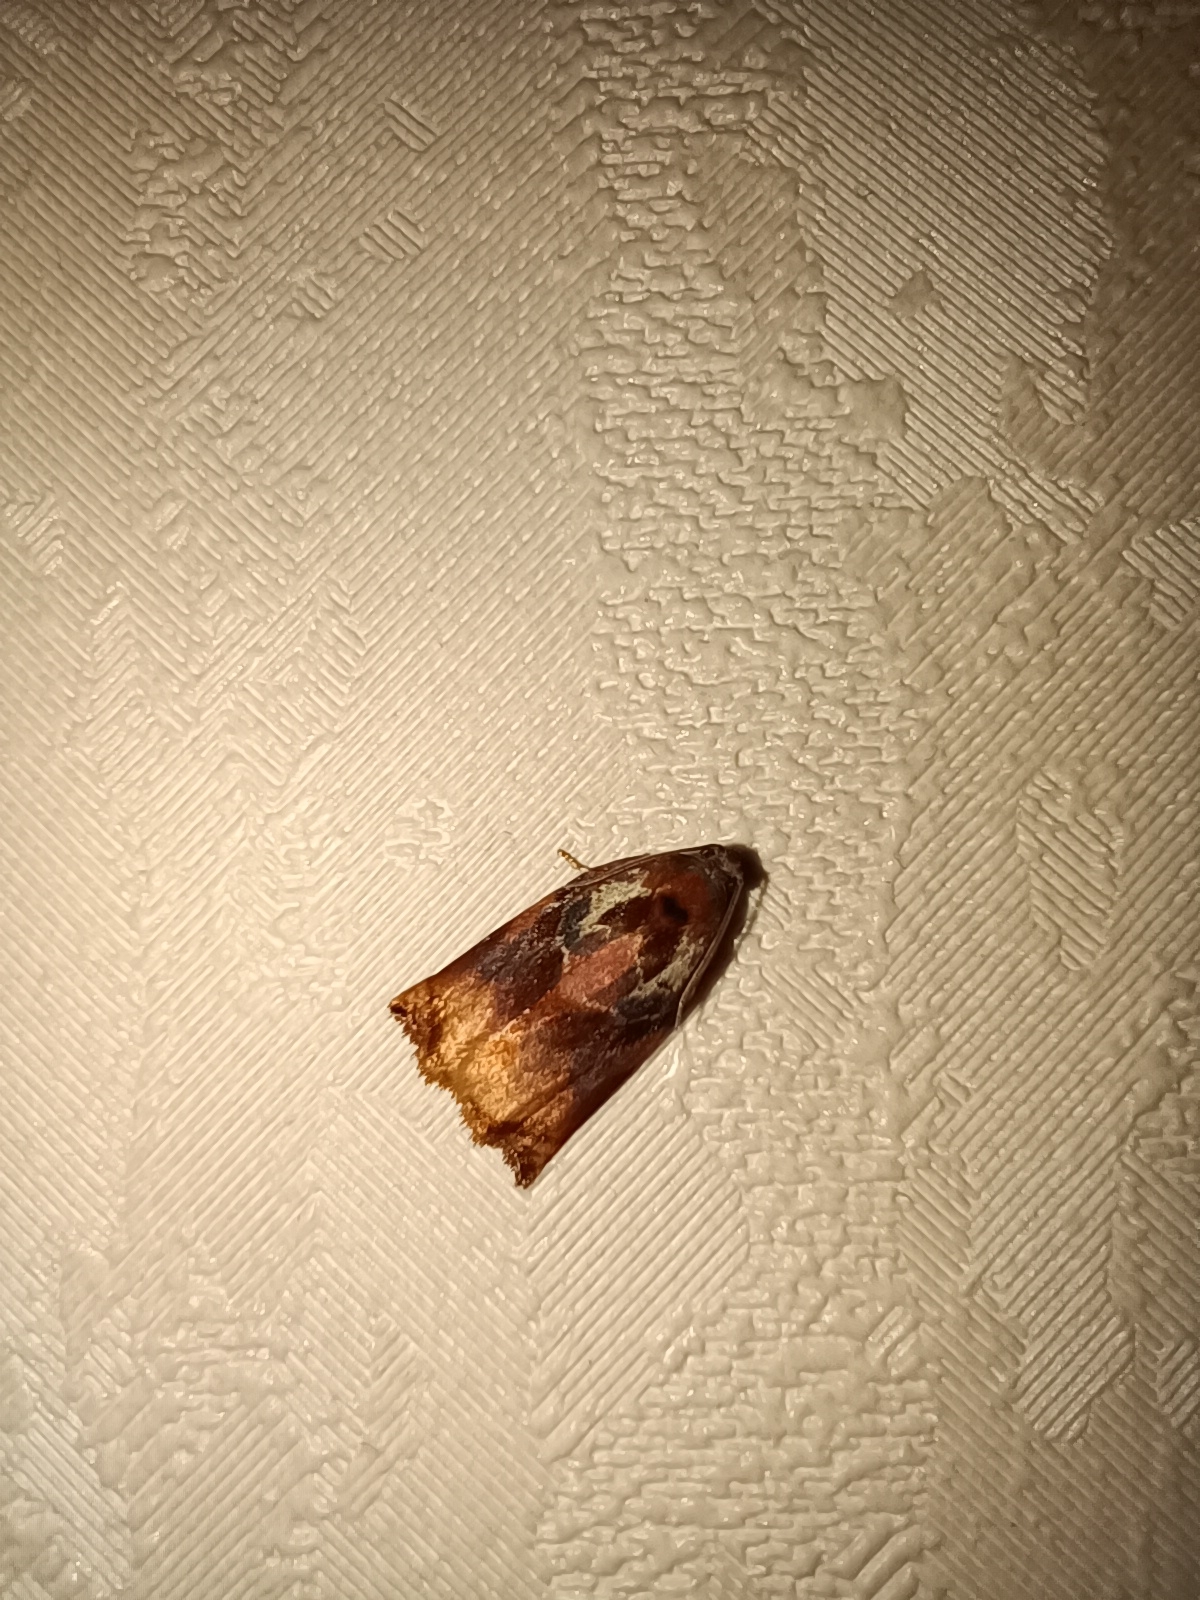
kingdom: Animalia
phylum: Arthropoda
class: Insecta
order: Lepidoptera
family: Tortricidae
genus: Archips
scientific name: Archips podana
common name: Large fruit-tree tortrix
